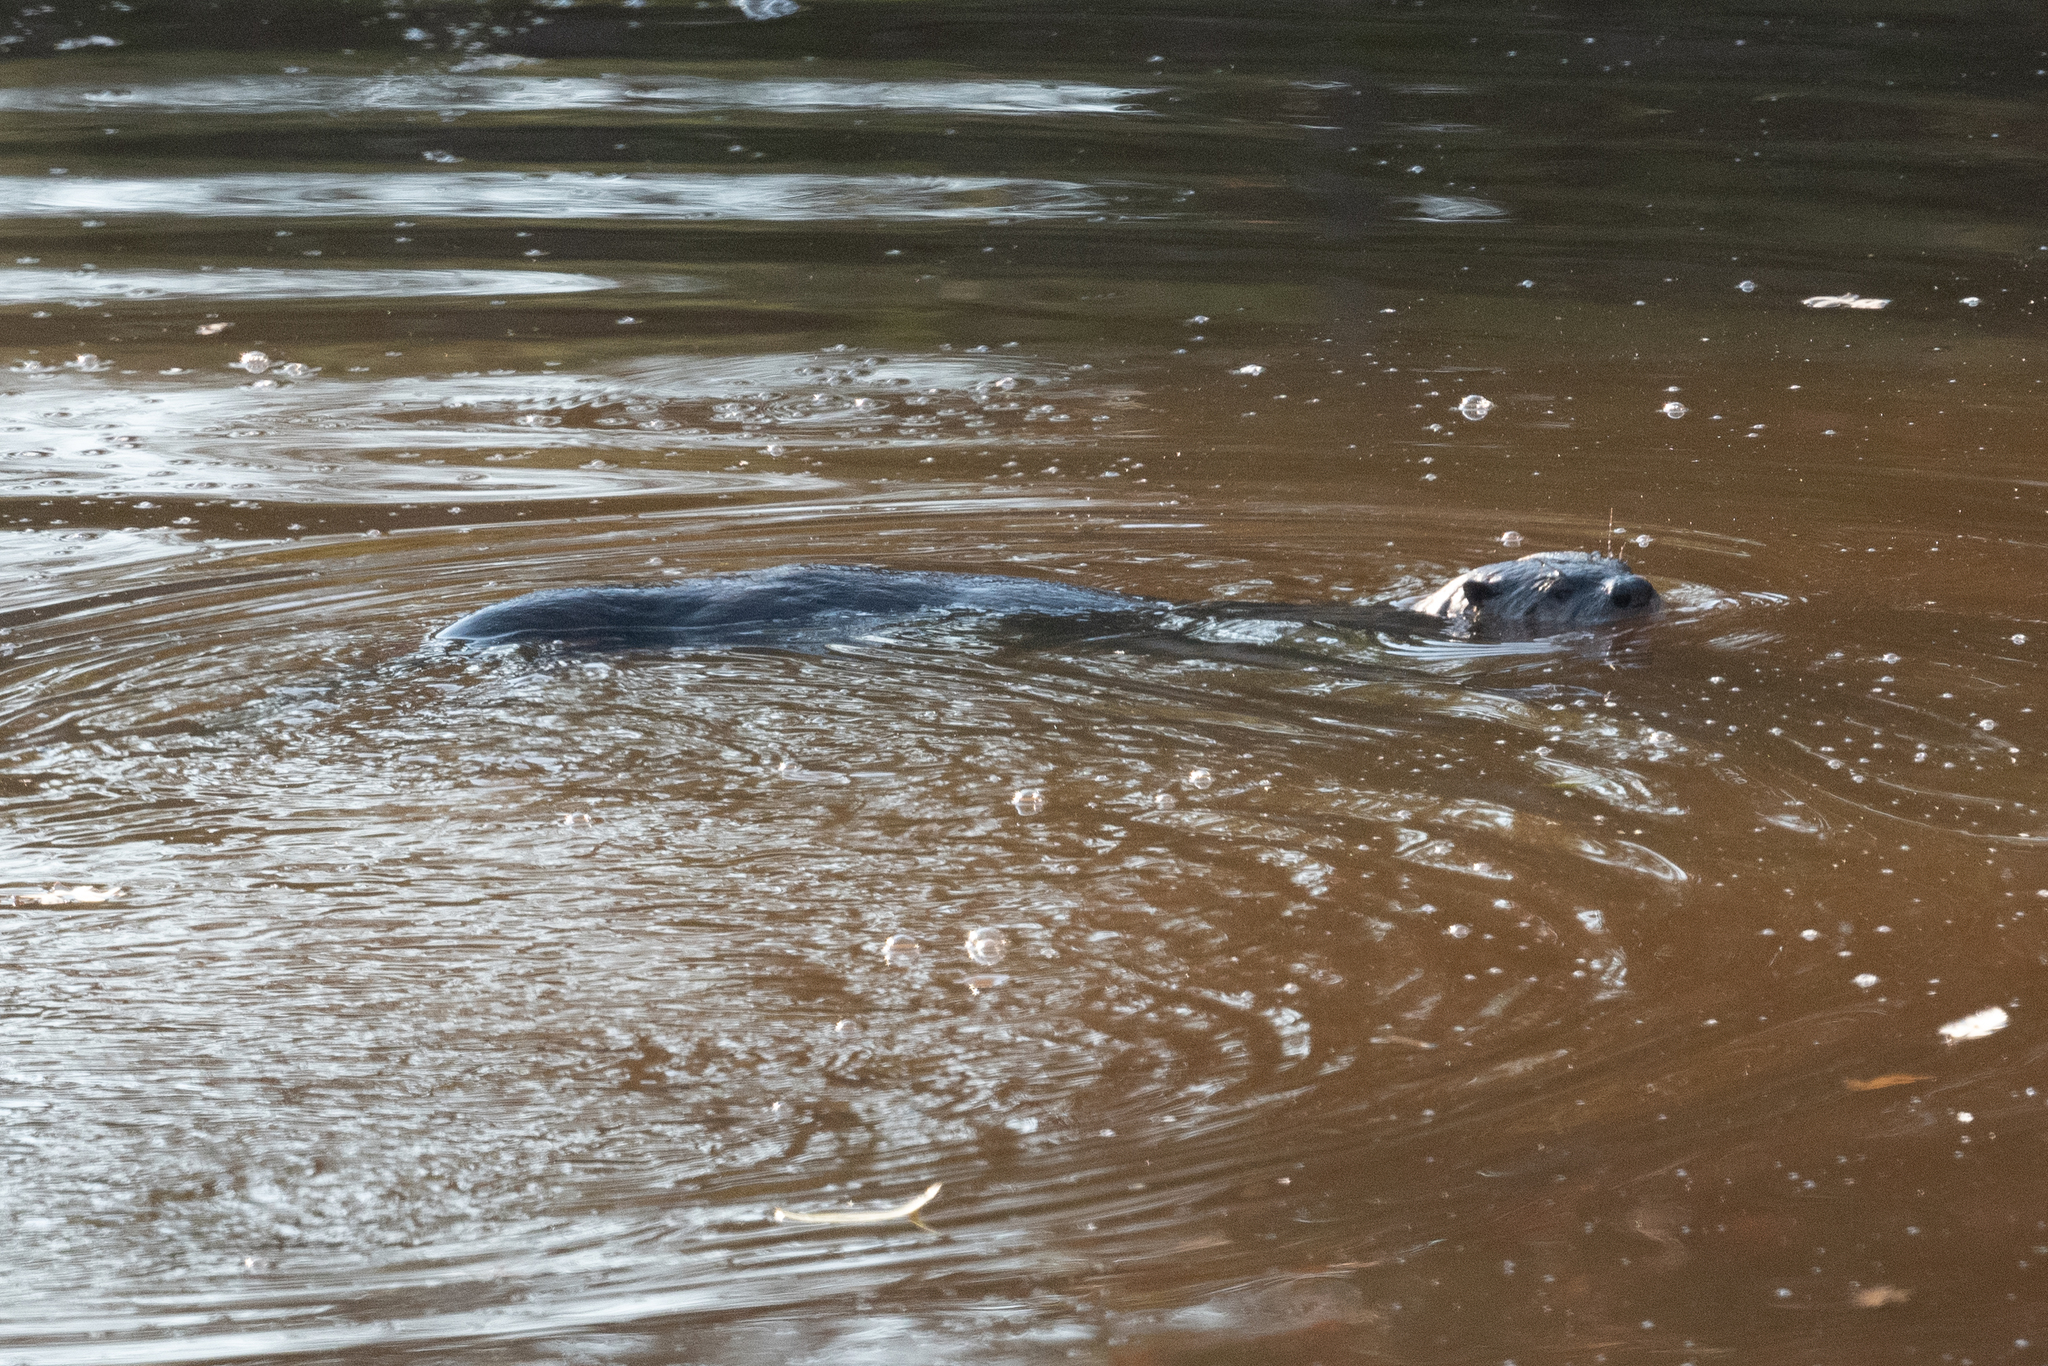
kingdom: Animalia
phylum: Chordata
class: Mammalia
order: Carnivora
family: Mustelidae
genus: Lontra
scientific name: Lontra canadensis
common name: North american river otter
